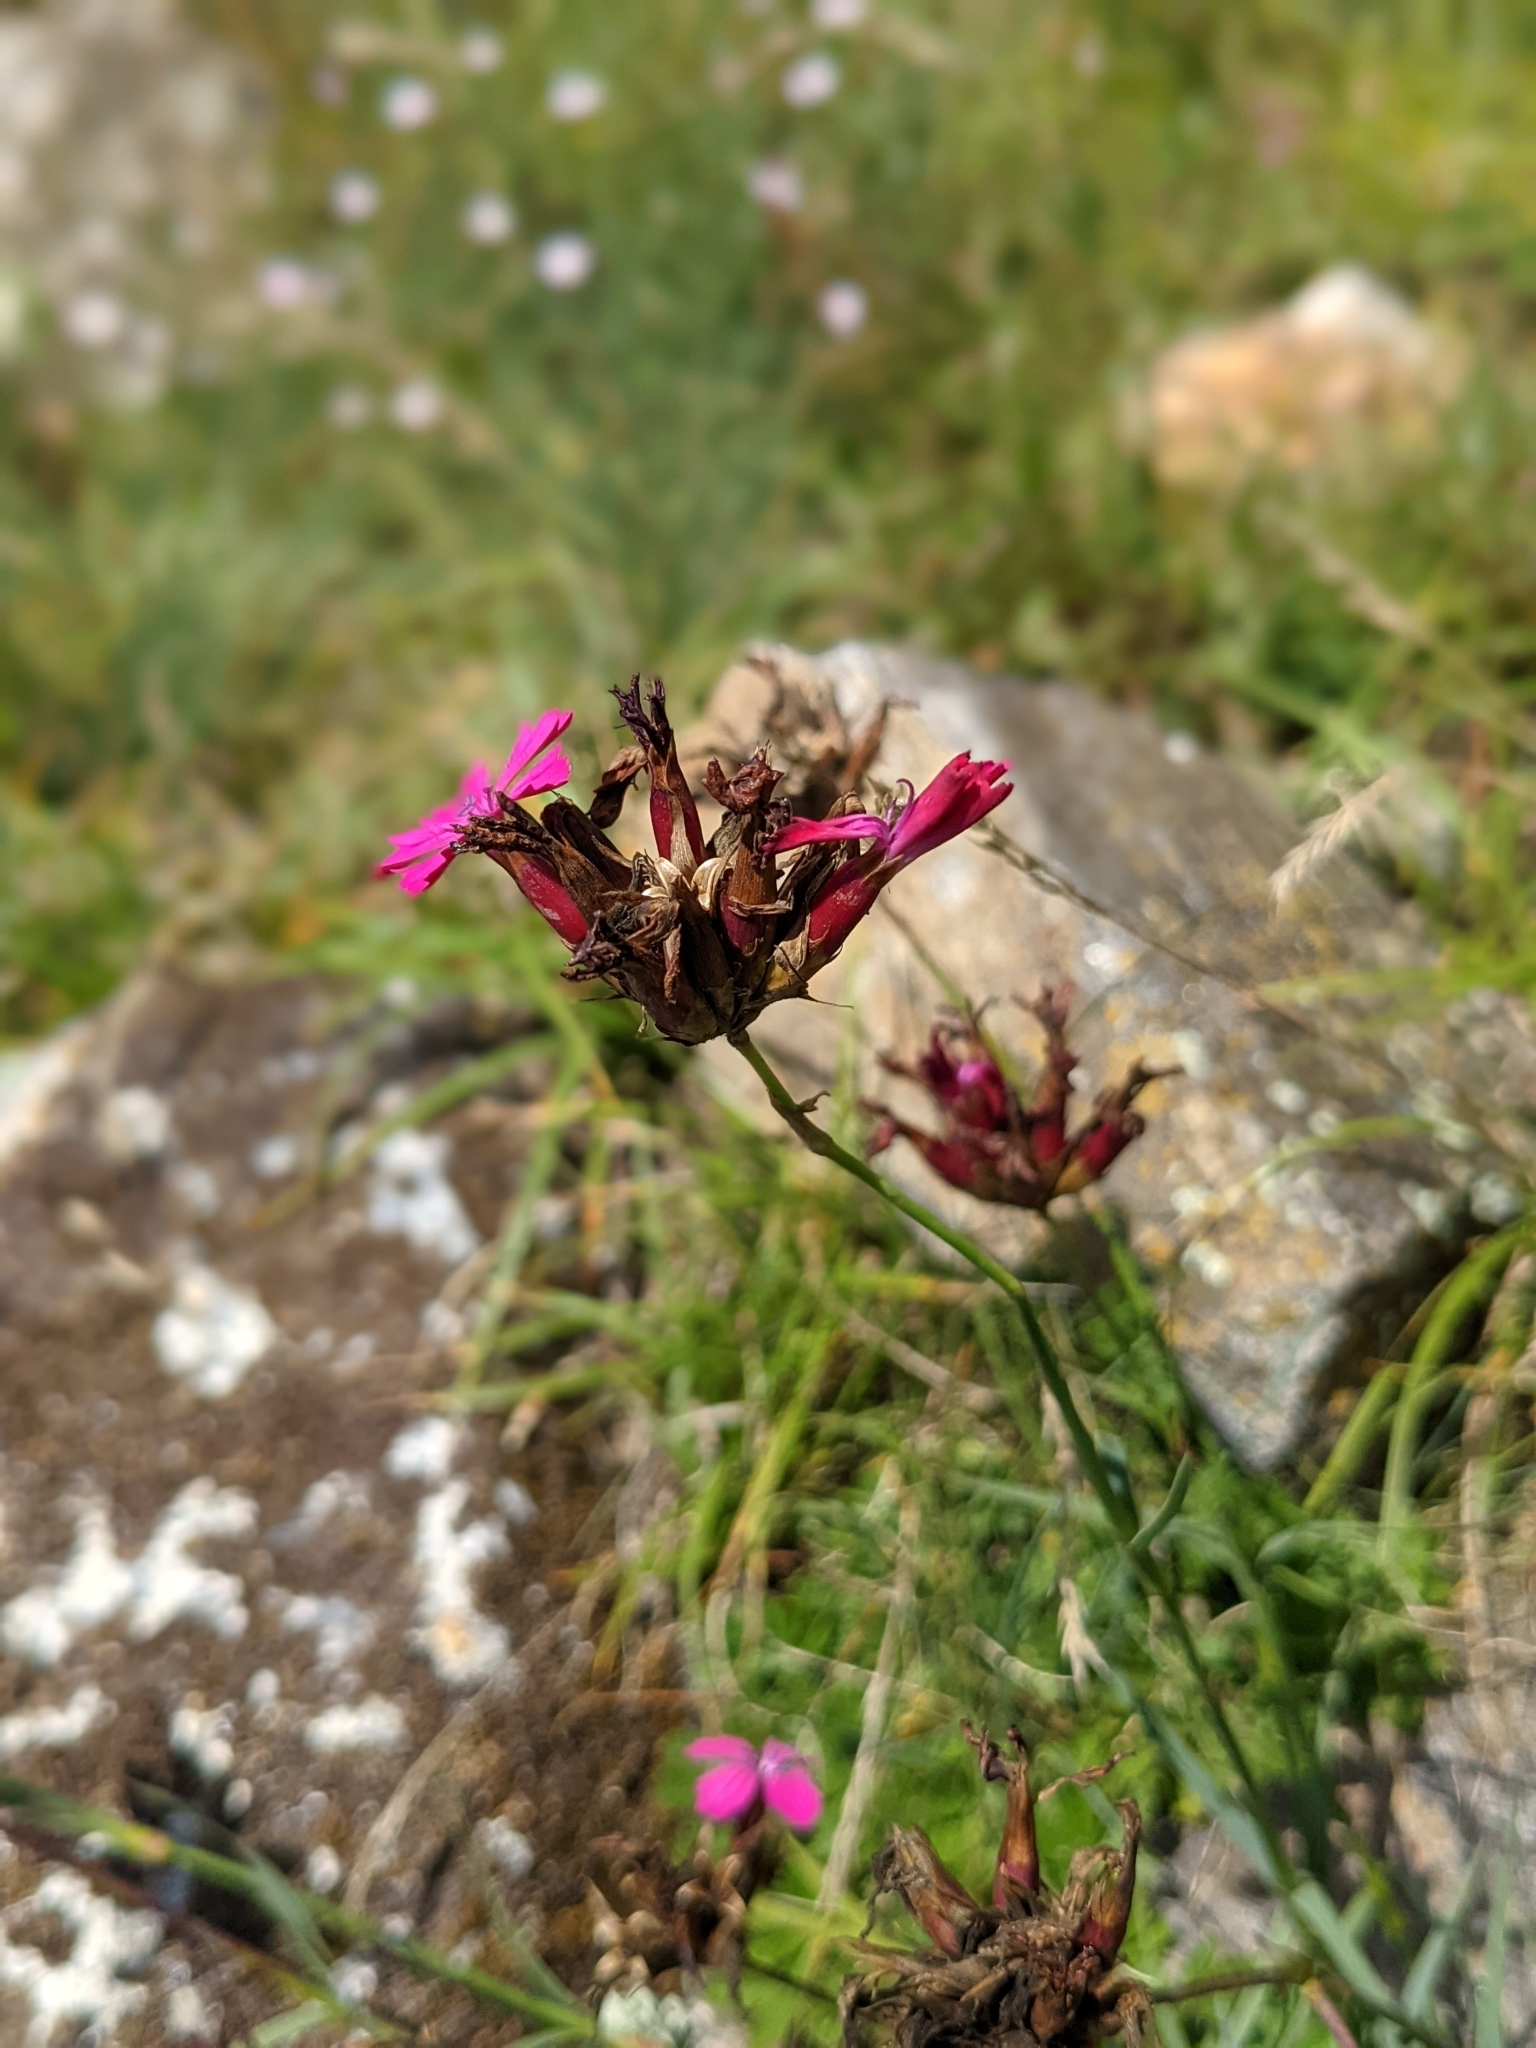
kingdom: Plantae
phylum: Tracheophyta
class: Magnoliopsida
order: Caryophyllales
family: Caryophyllaceae
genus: Dianthus
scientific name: Dianthus carthusianorum
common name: Carthusian pink
